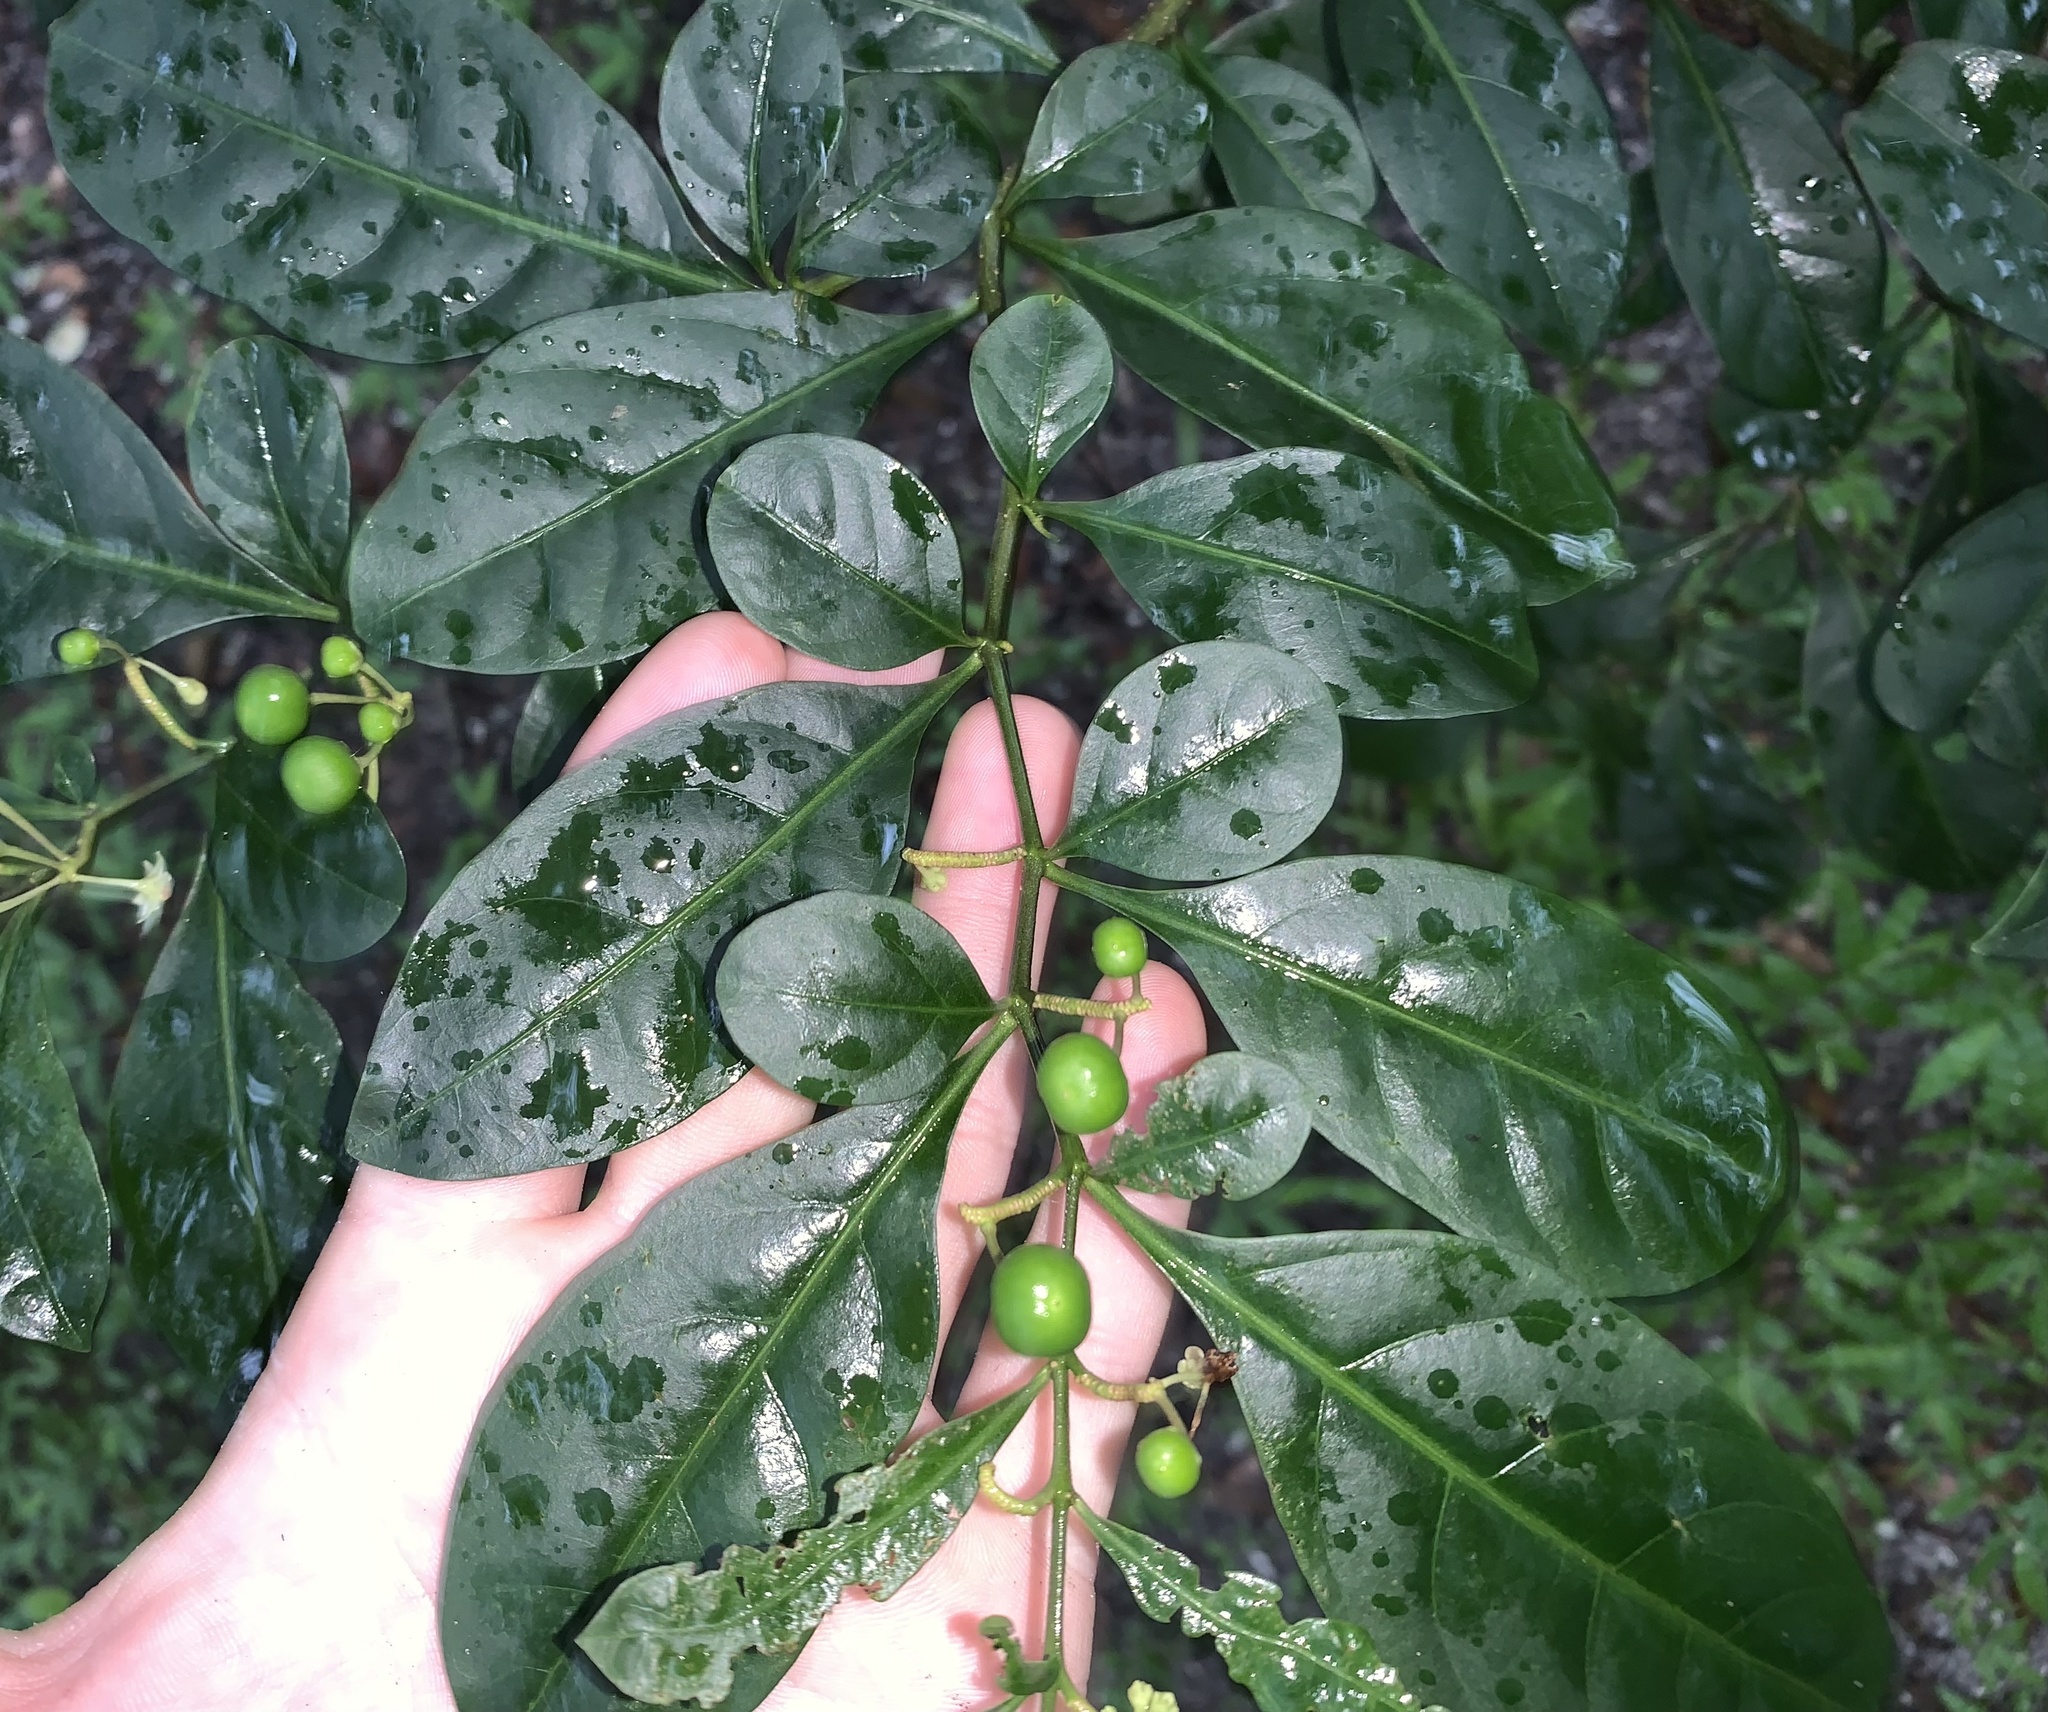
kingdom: Plantae
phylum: Tracheophyta
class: Magnoliopsida
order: Solanales
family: Solanaceae
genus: Solanum
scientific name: Solanum diphyllum
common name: Twoleaf nightshade
